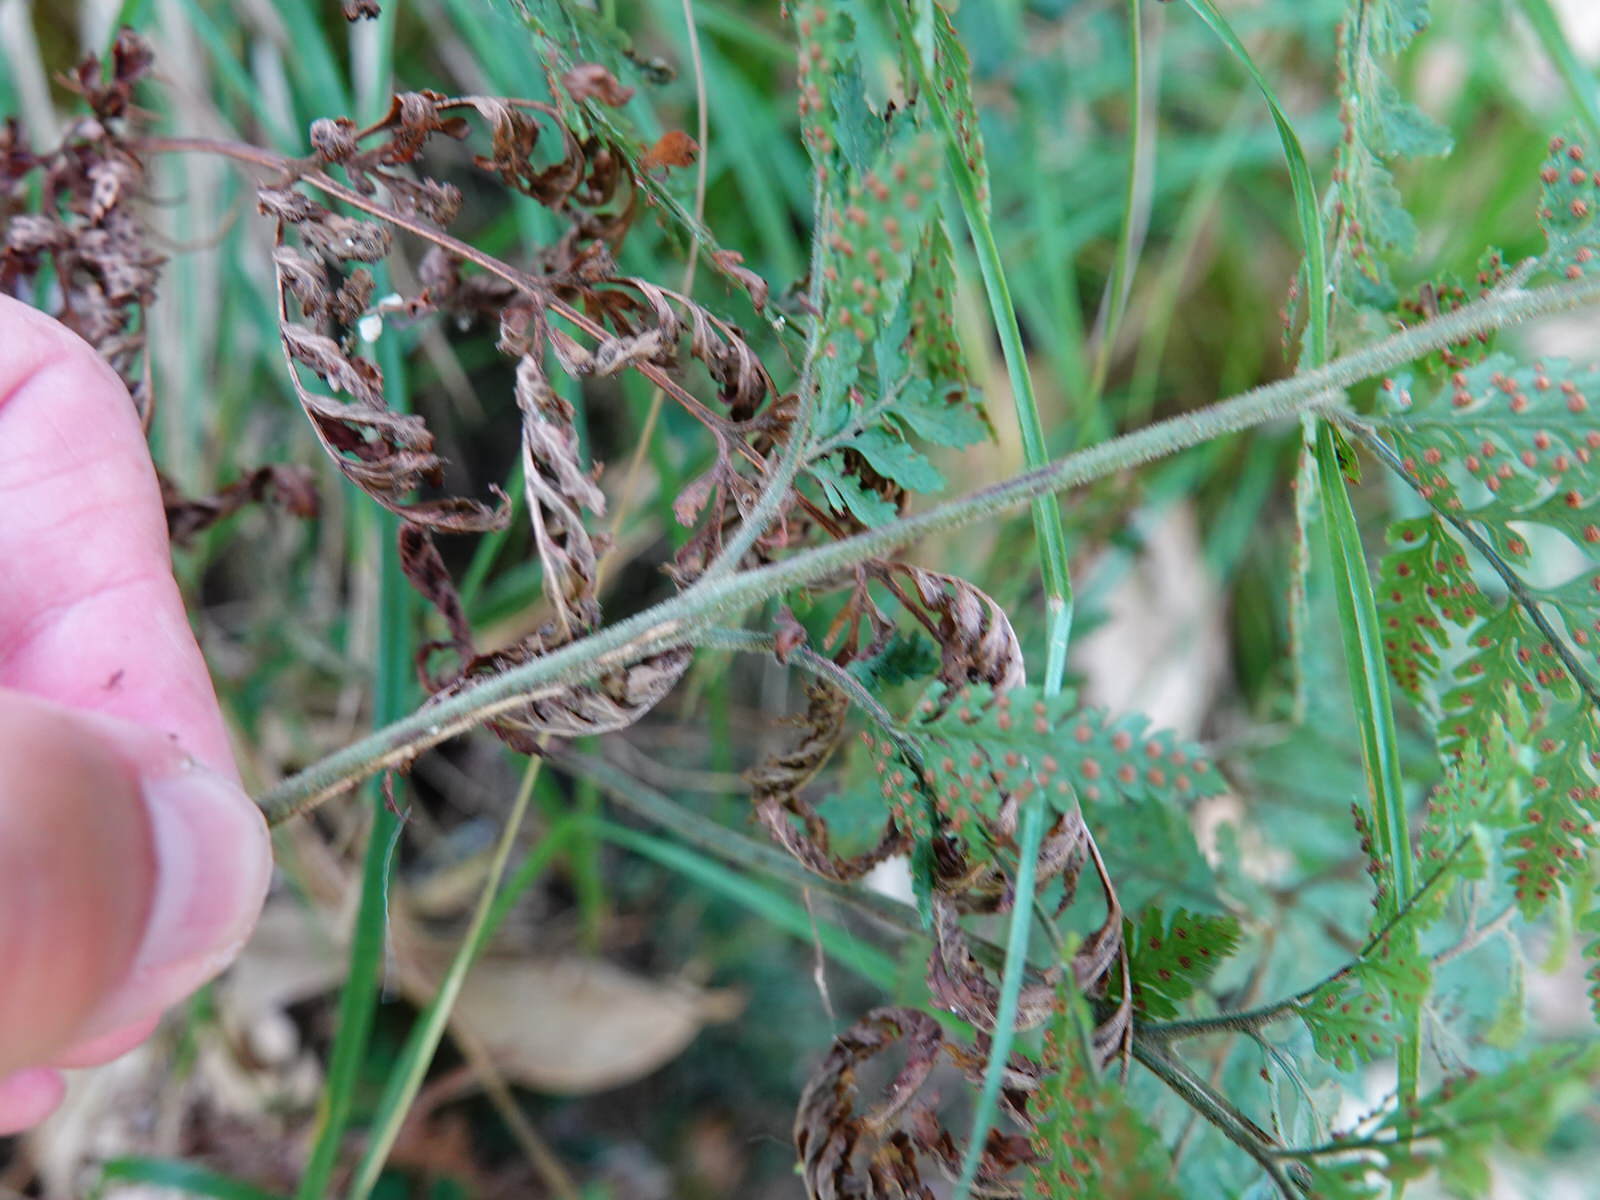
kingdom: Plantae
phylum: Tracheophyta
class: Polypodiopsida
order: Polypodiales
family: Dryopteridaceae
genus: Parapolystichum
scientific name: Parapolystichum microsorum
